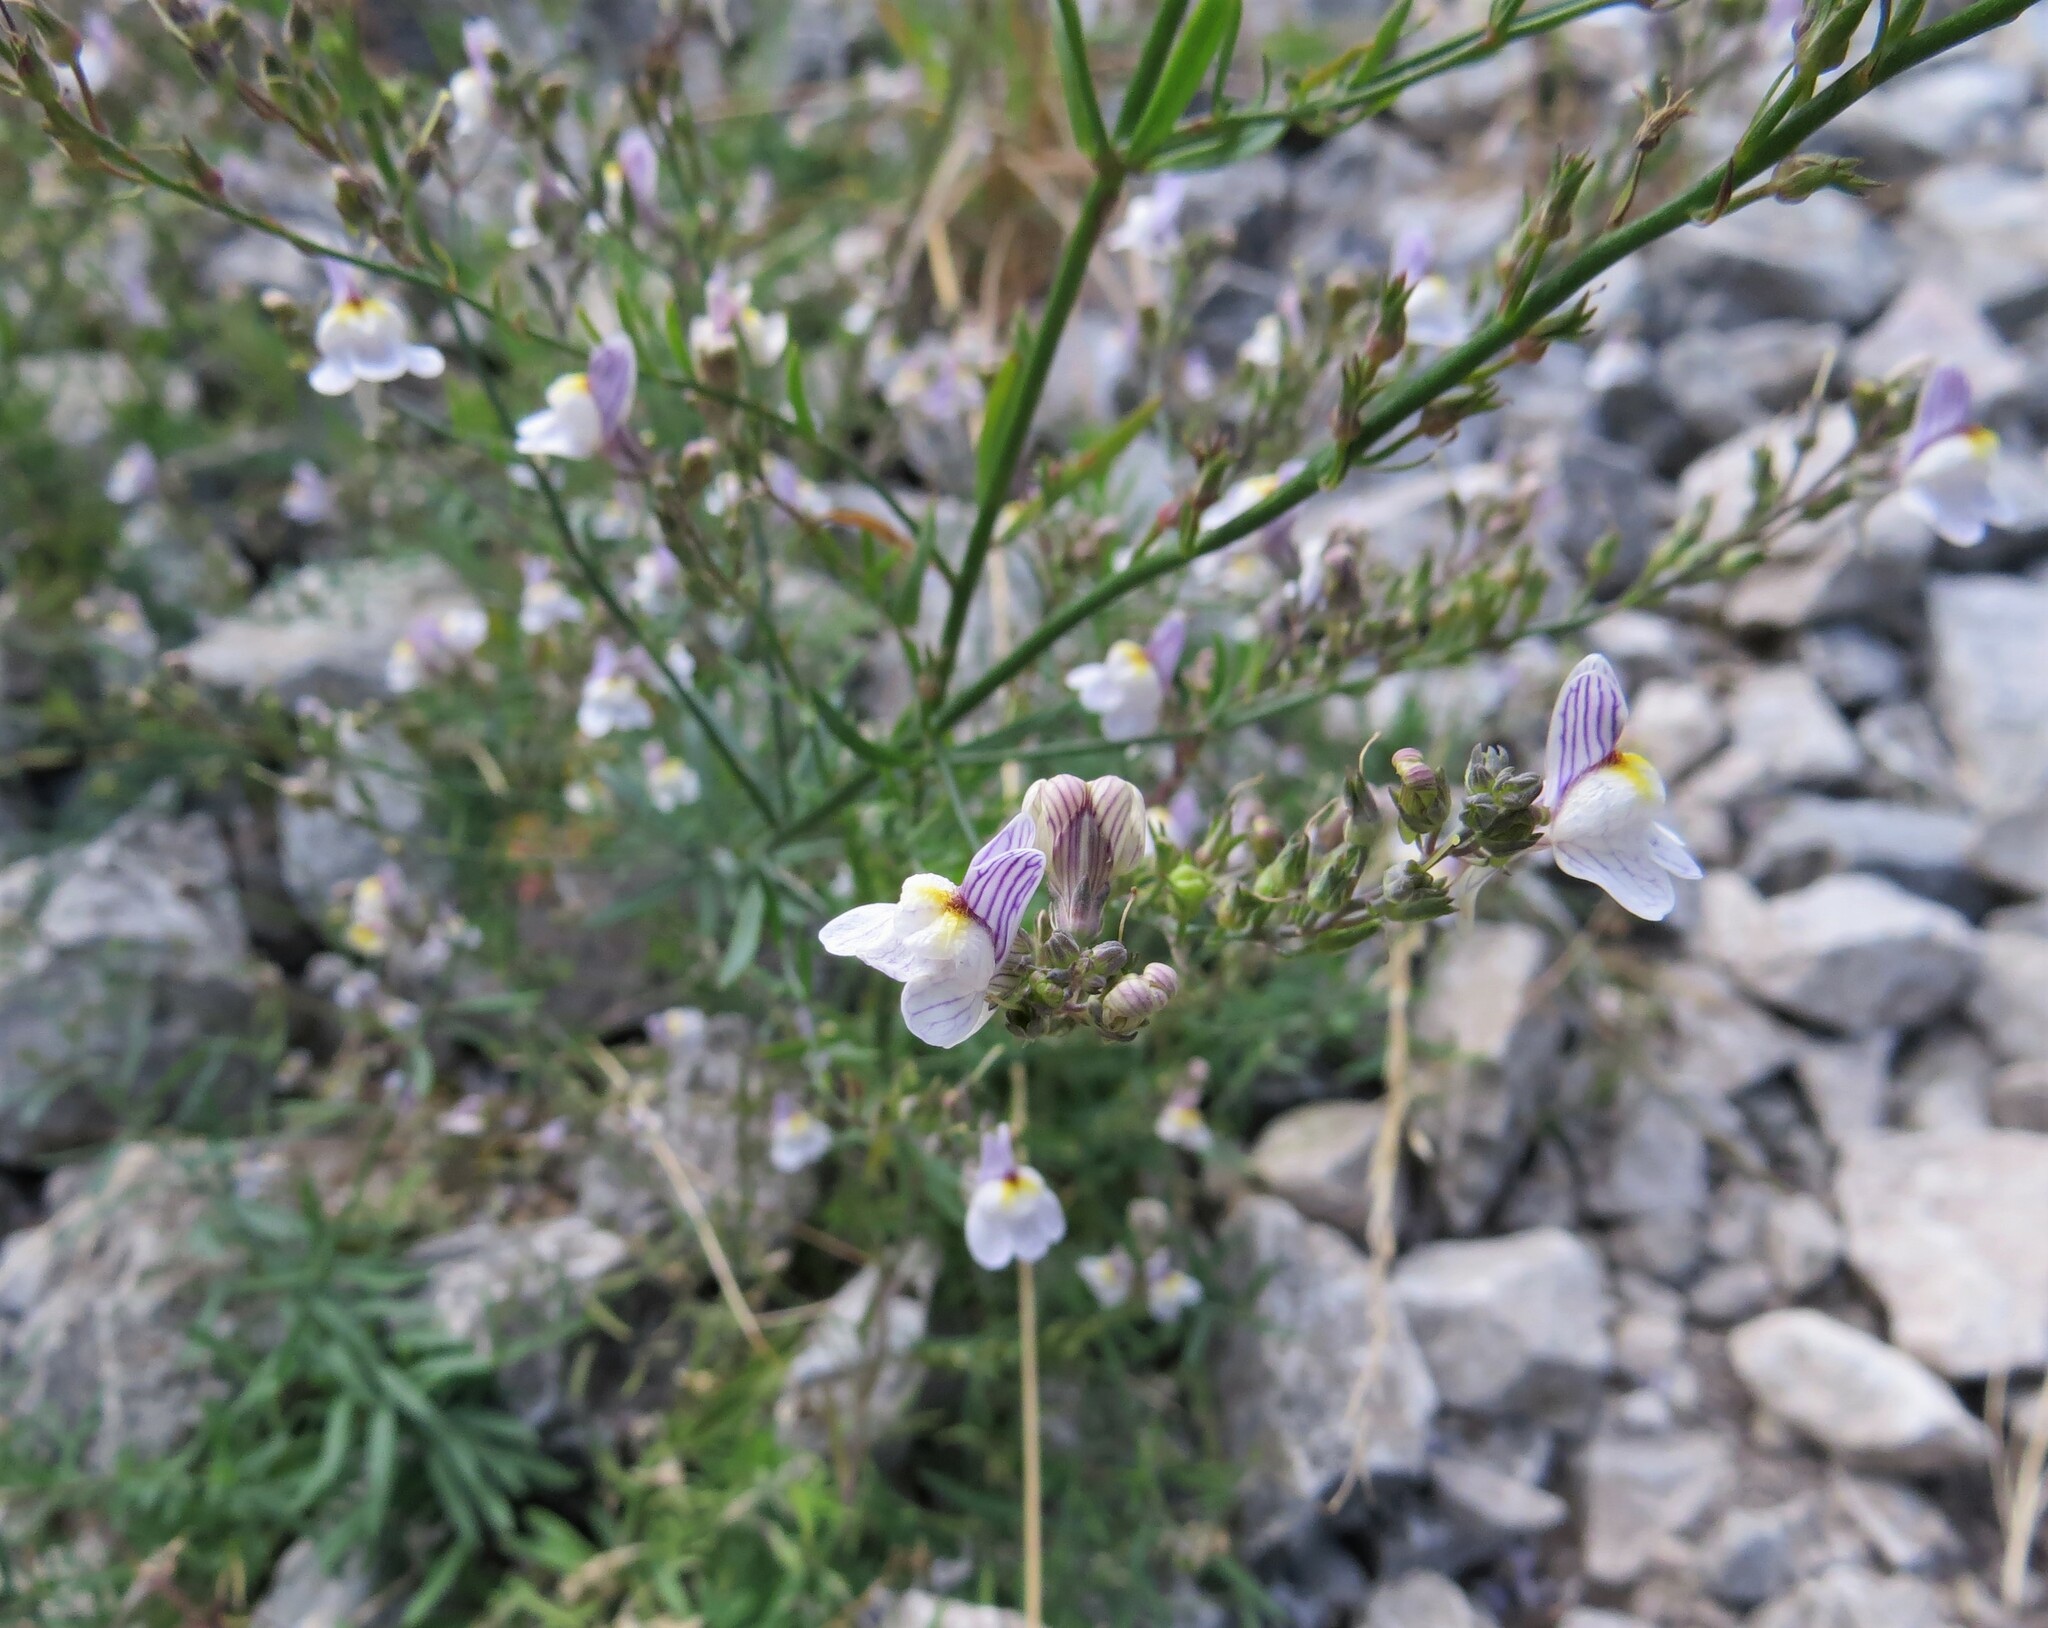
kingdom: Plantae
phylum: Tracheophyta
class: Magnoliopsida
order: Lamiales
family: Plantaginaceae
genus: Linaria
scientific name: Linaria repens
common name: Pale toadflax
